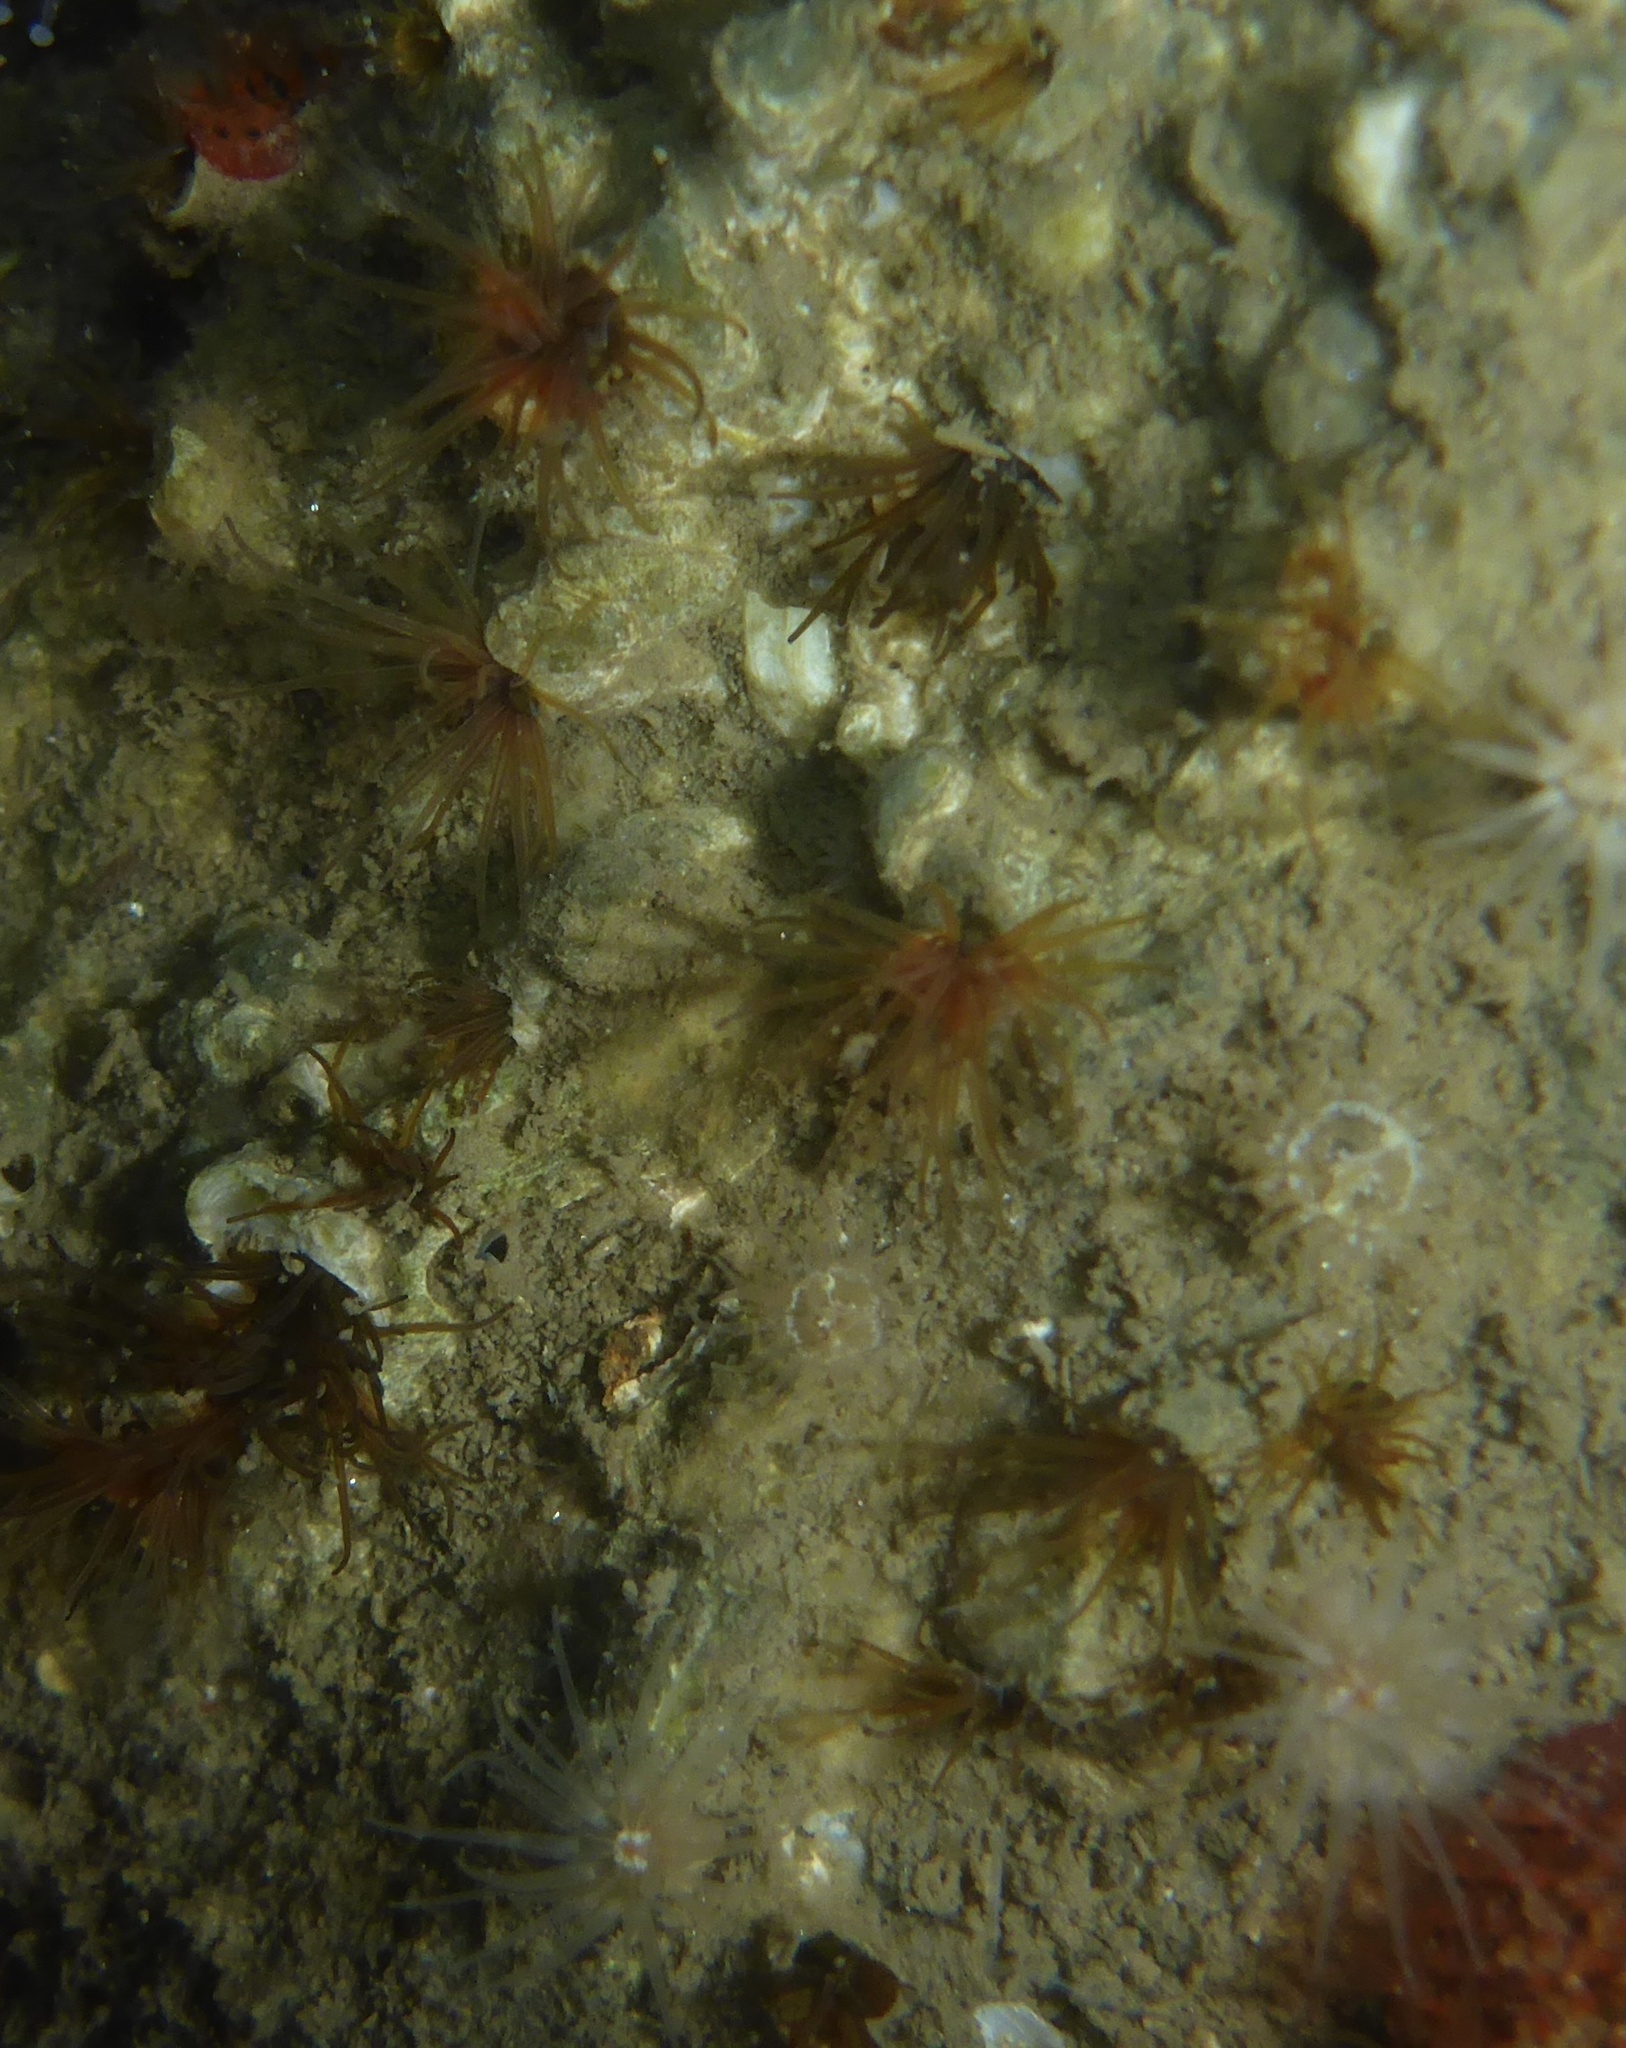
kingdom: Animalia
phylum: Annelida
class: Polychaeta
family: Cirratulidae
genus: Dodecaceria
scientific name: Dodecaceria pacifica
